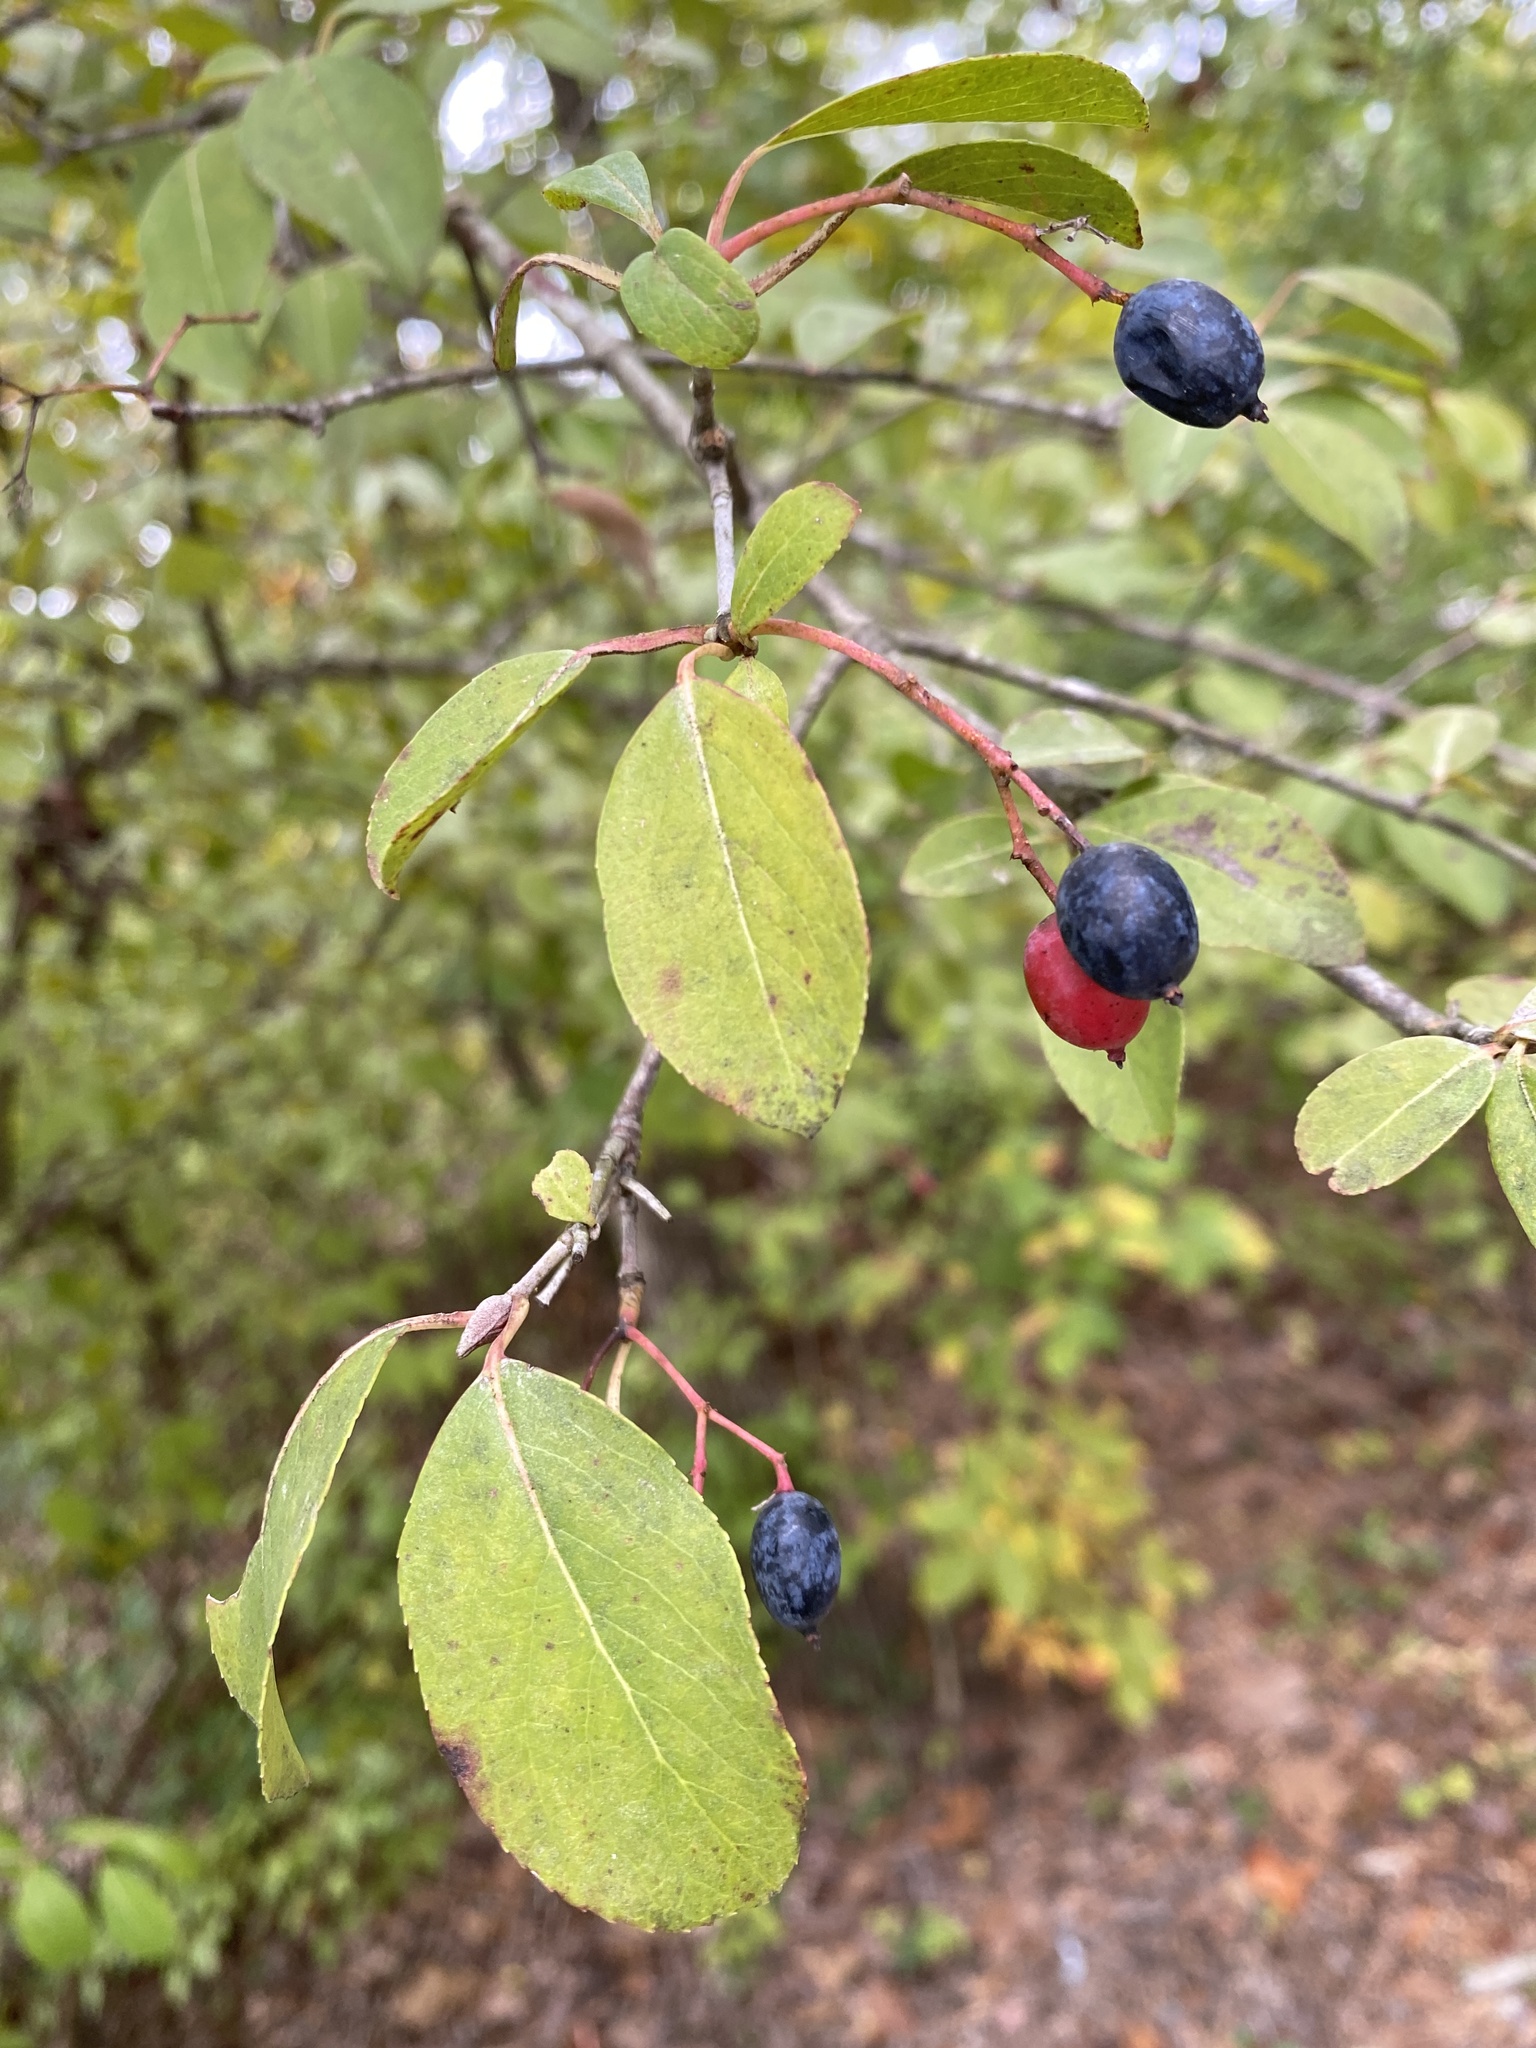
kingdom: Plantae
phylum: Tracheophyta
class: Magnoliopsida
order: Dipsacales
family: Viburnaceae
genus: Viburnum
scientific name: Viburnum prunifolium
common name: Black haw
